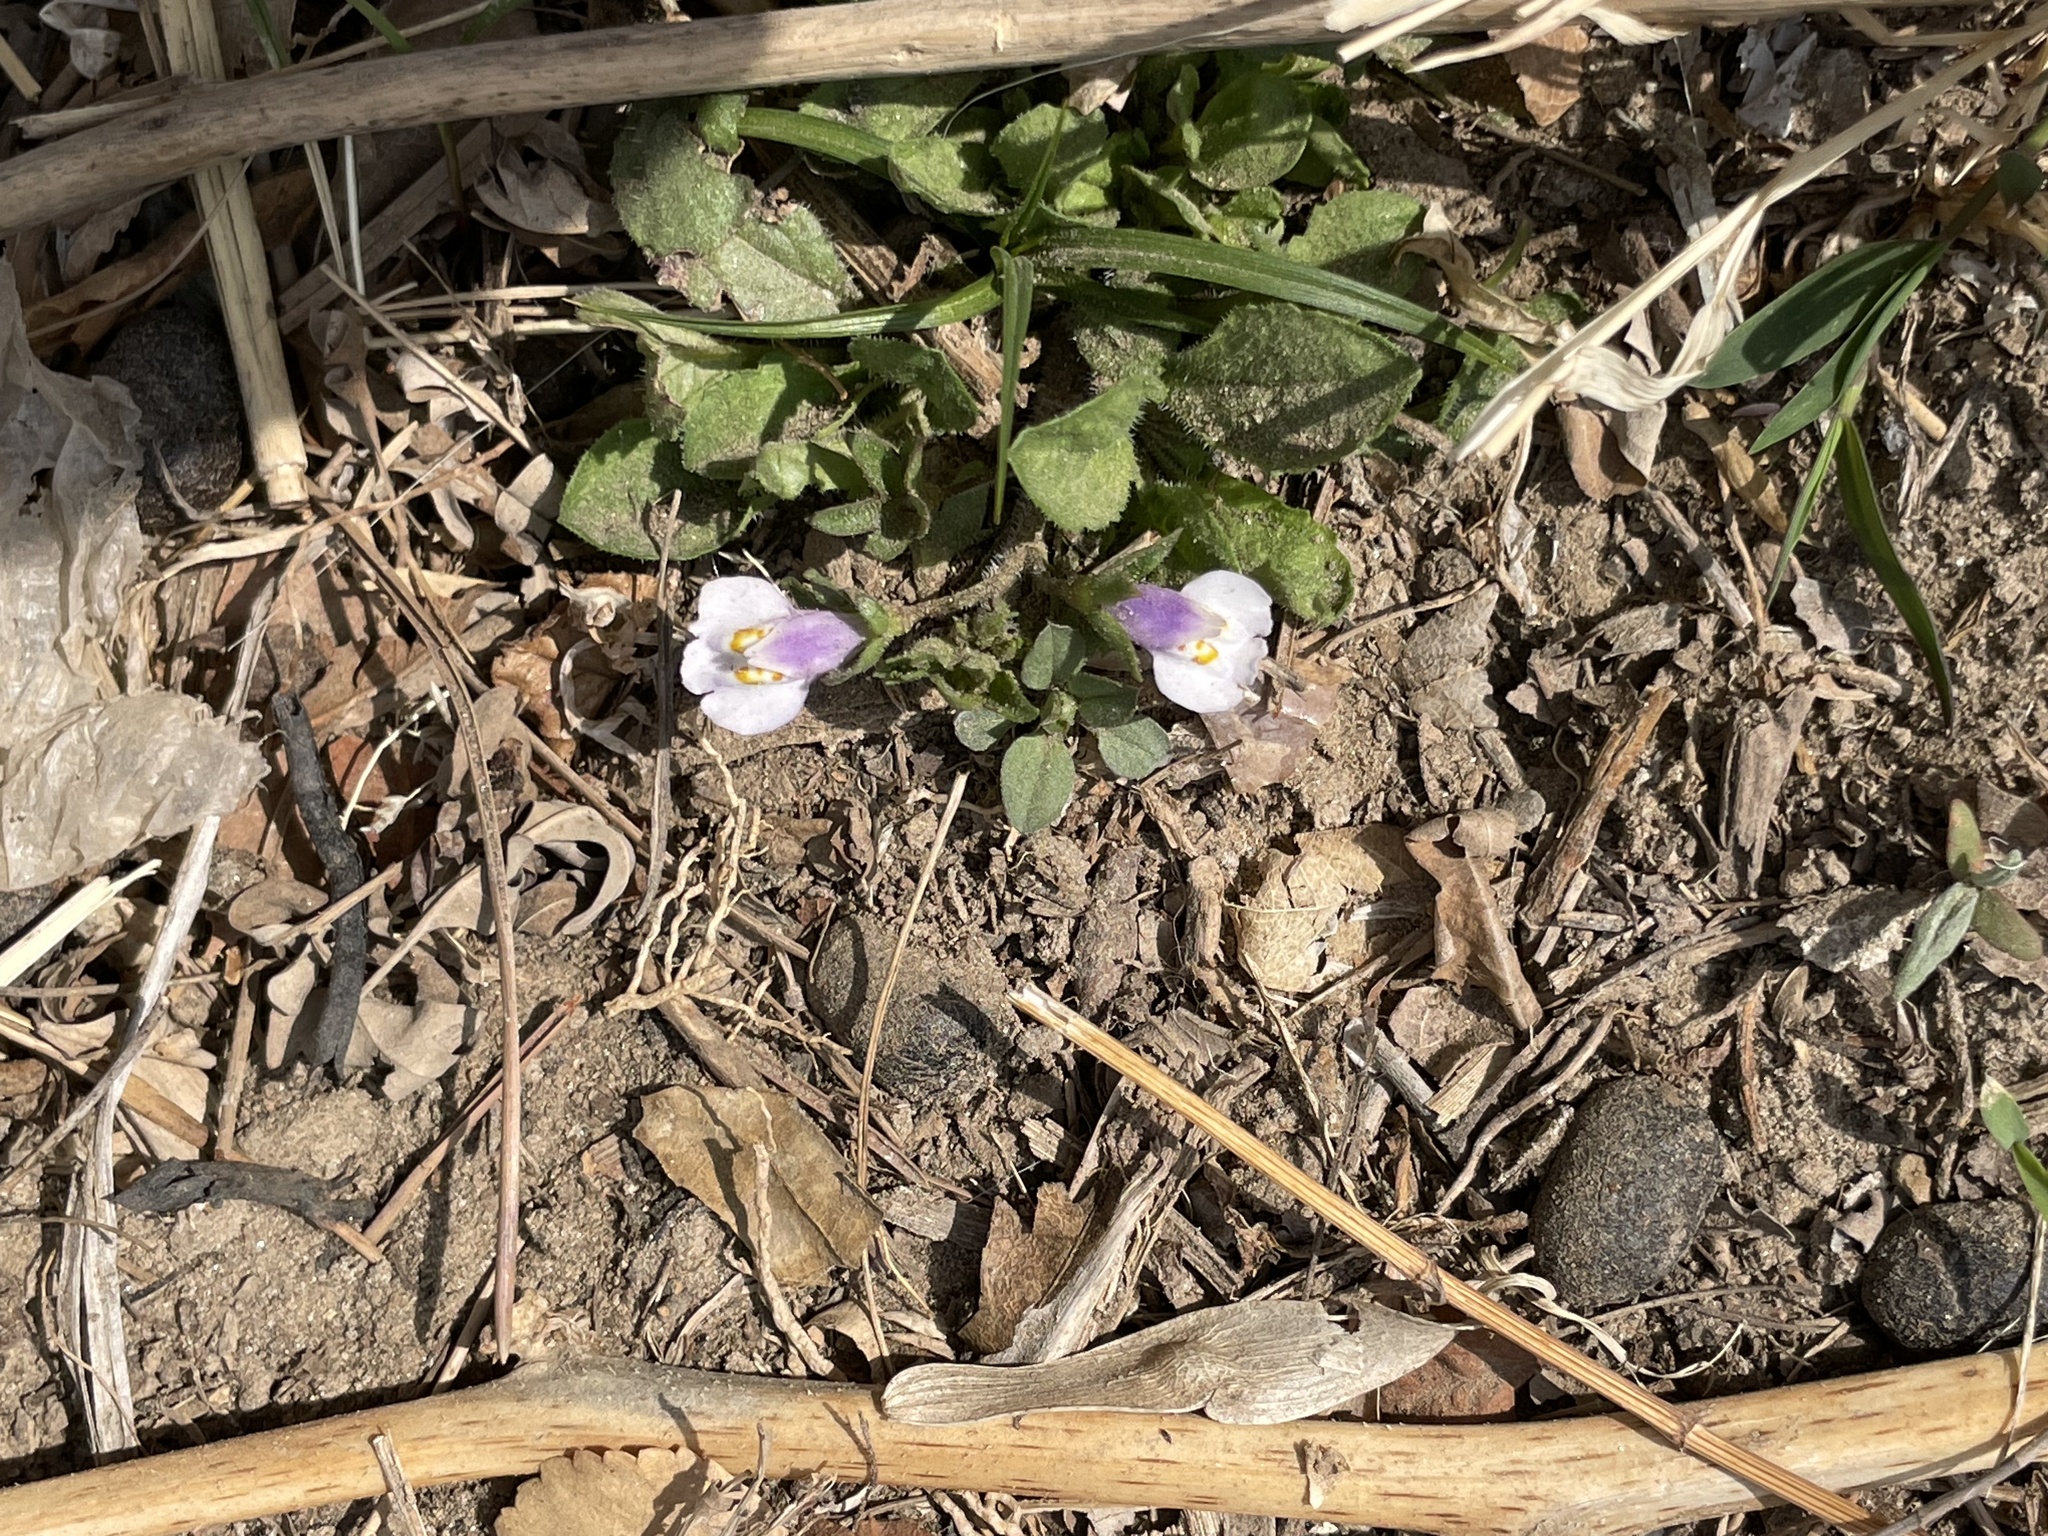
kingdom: Plantae
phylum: Tracheophyta
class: Magnoliopsida
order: Lamiales
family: Mazaceae
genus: Mazus
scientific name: Mazus pumilus
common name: Japanese mazus
